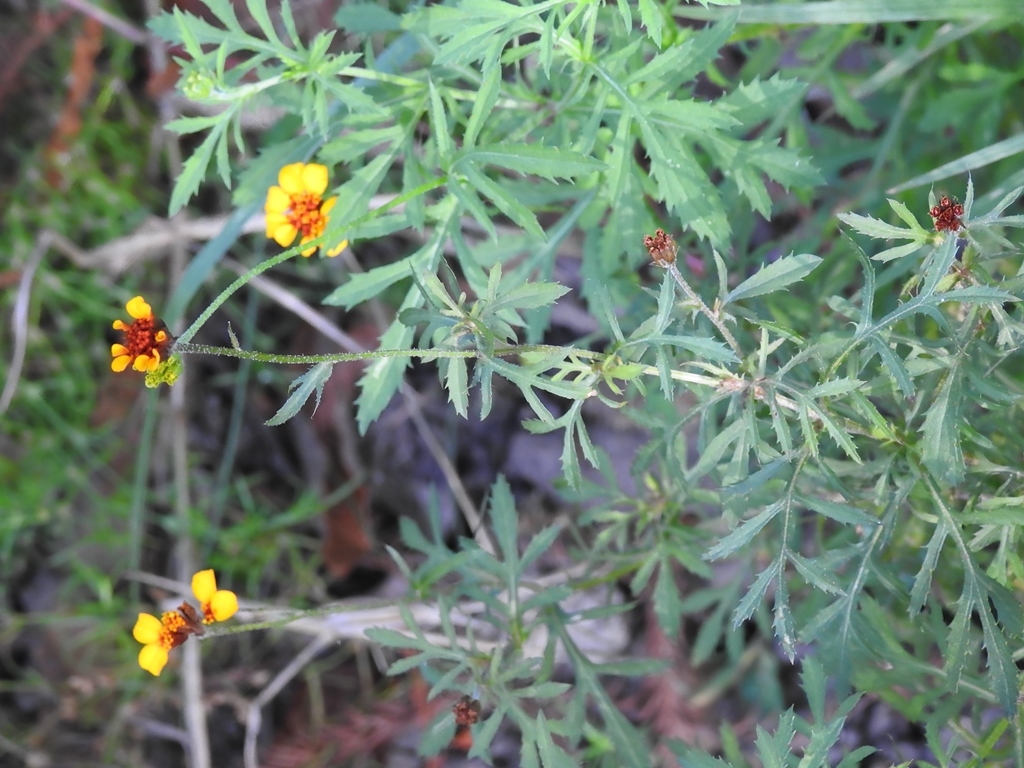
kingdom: Plantae
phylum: Tracheophyta
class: Magnoliopsida
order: Asterales
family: Asteraceae
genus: Dyssodia
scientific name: Dyssodia decipiens
